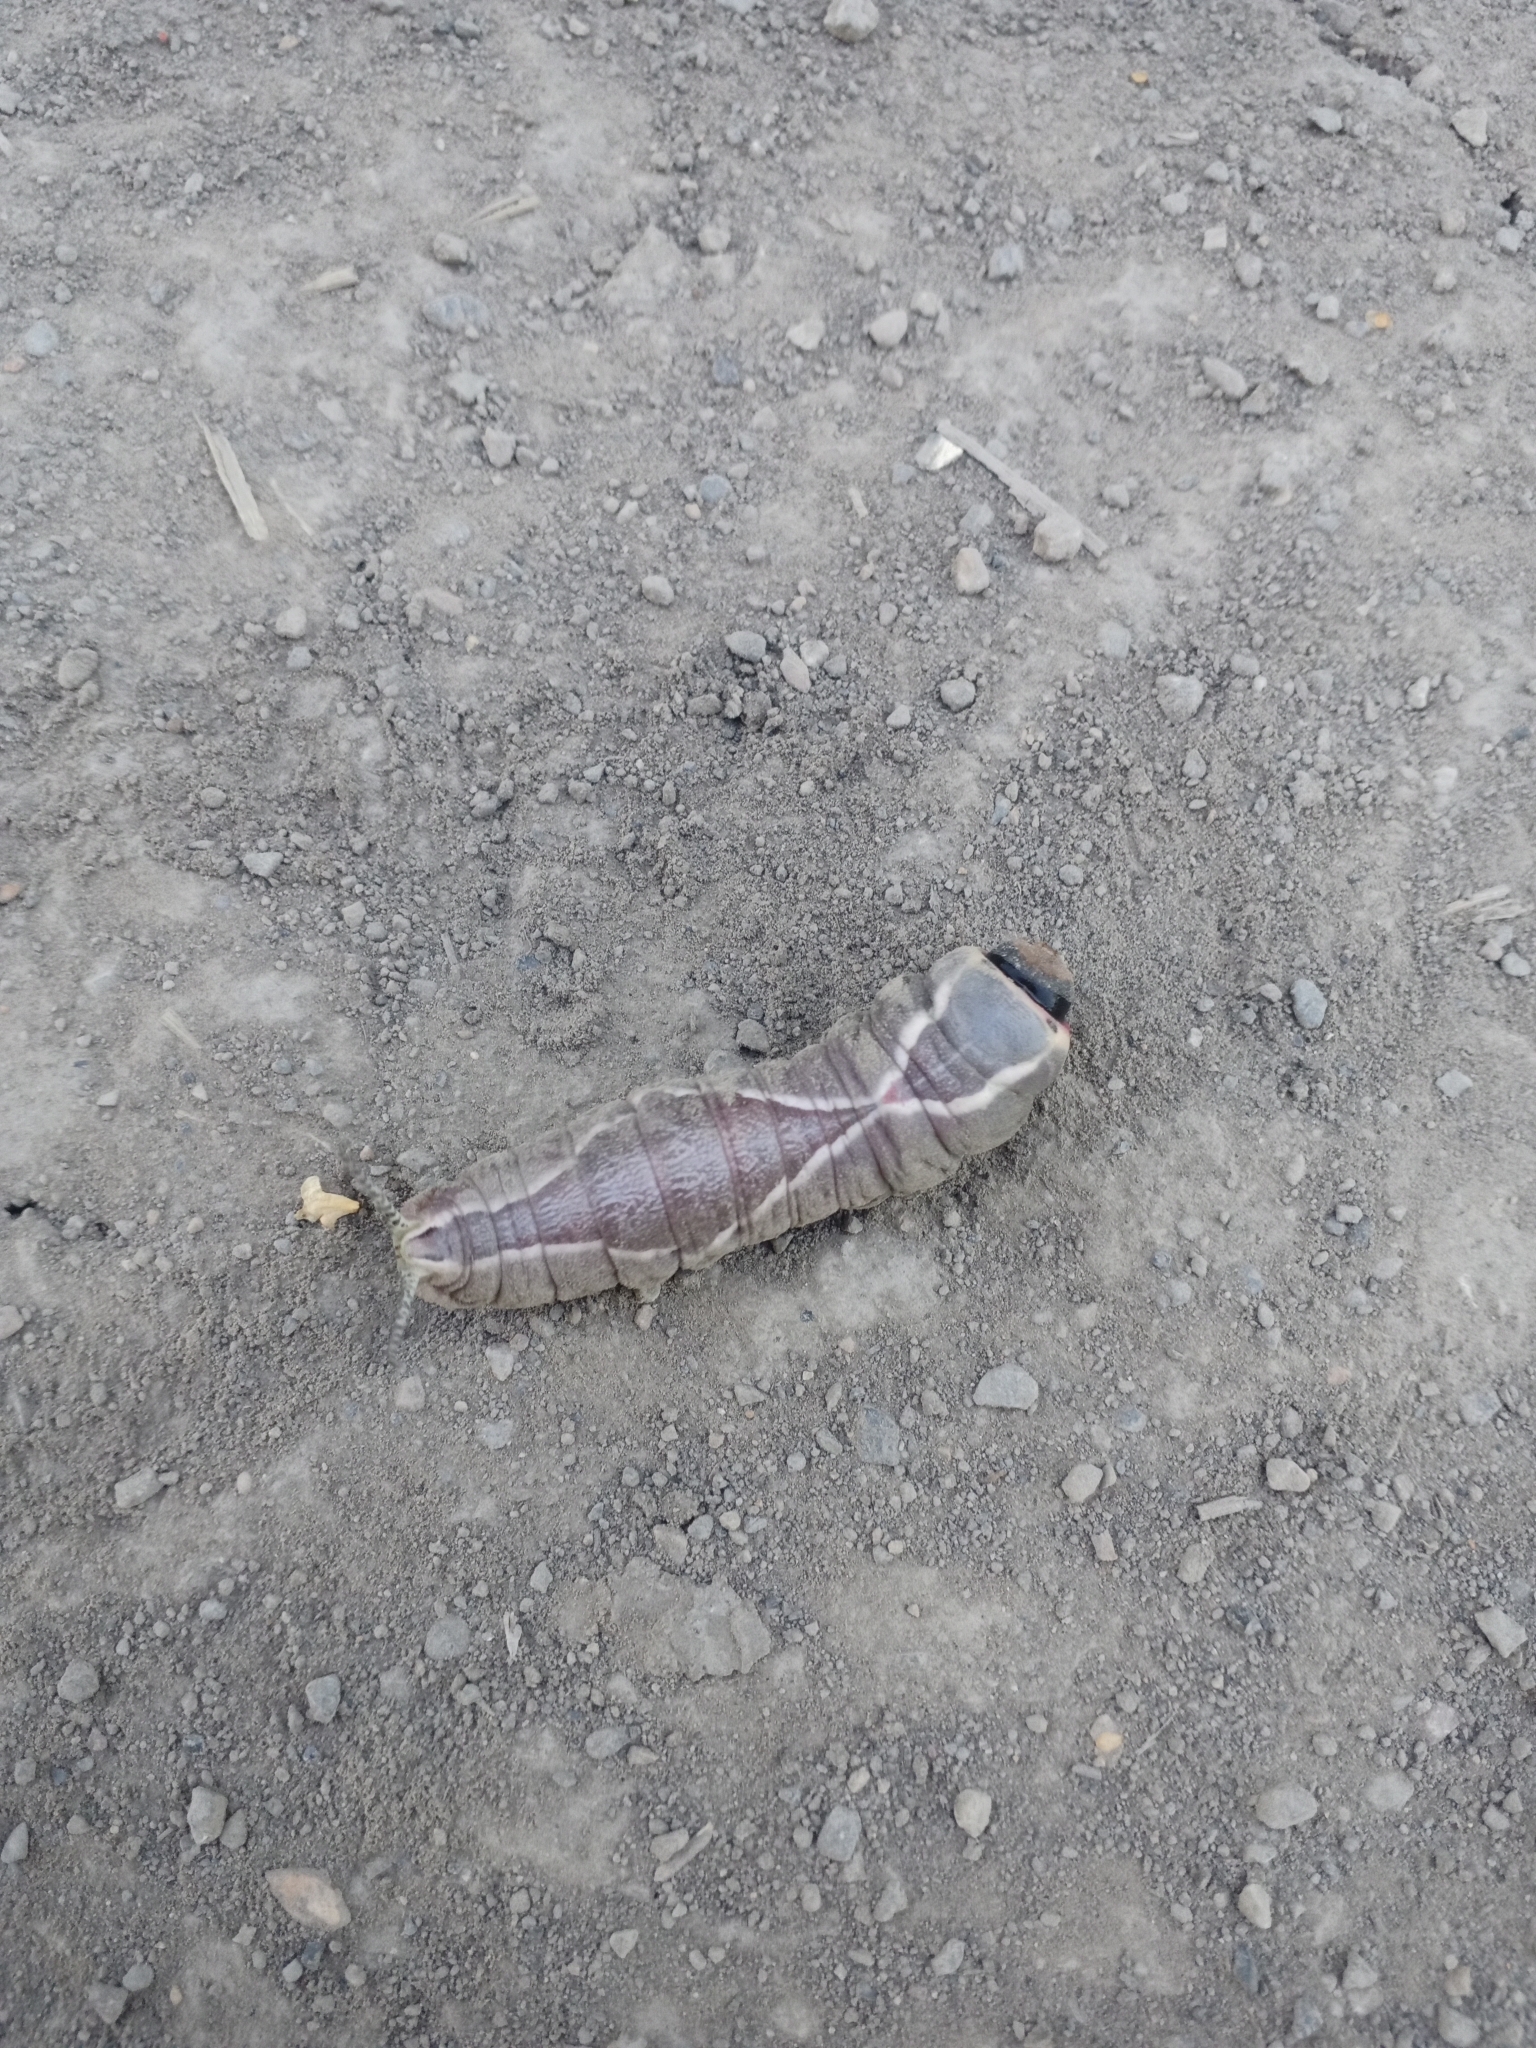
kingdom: Animalia
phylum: Arthropoda
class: Insecta
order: Lepidoptera
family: Notodontidae
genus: Cerura
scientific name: Cerura vinula
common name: Puss moth
